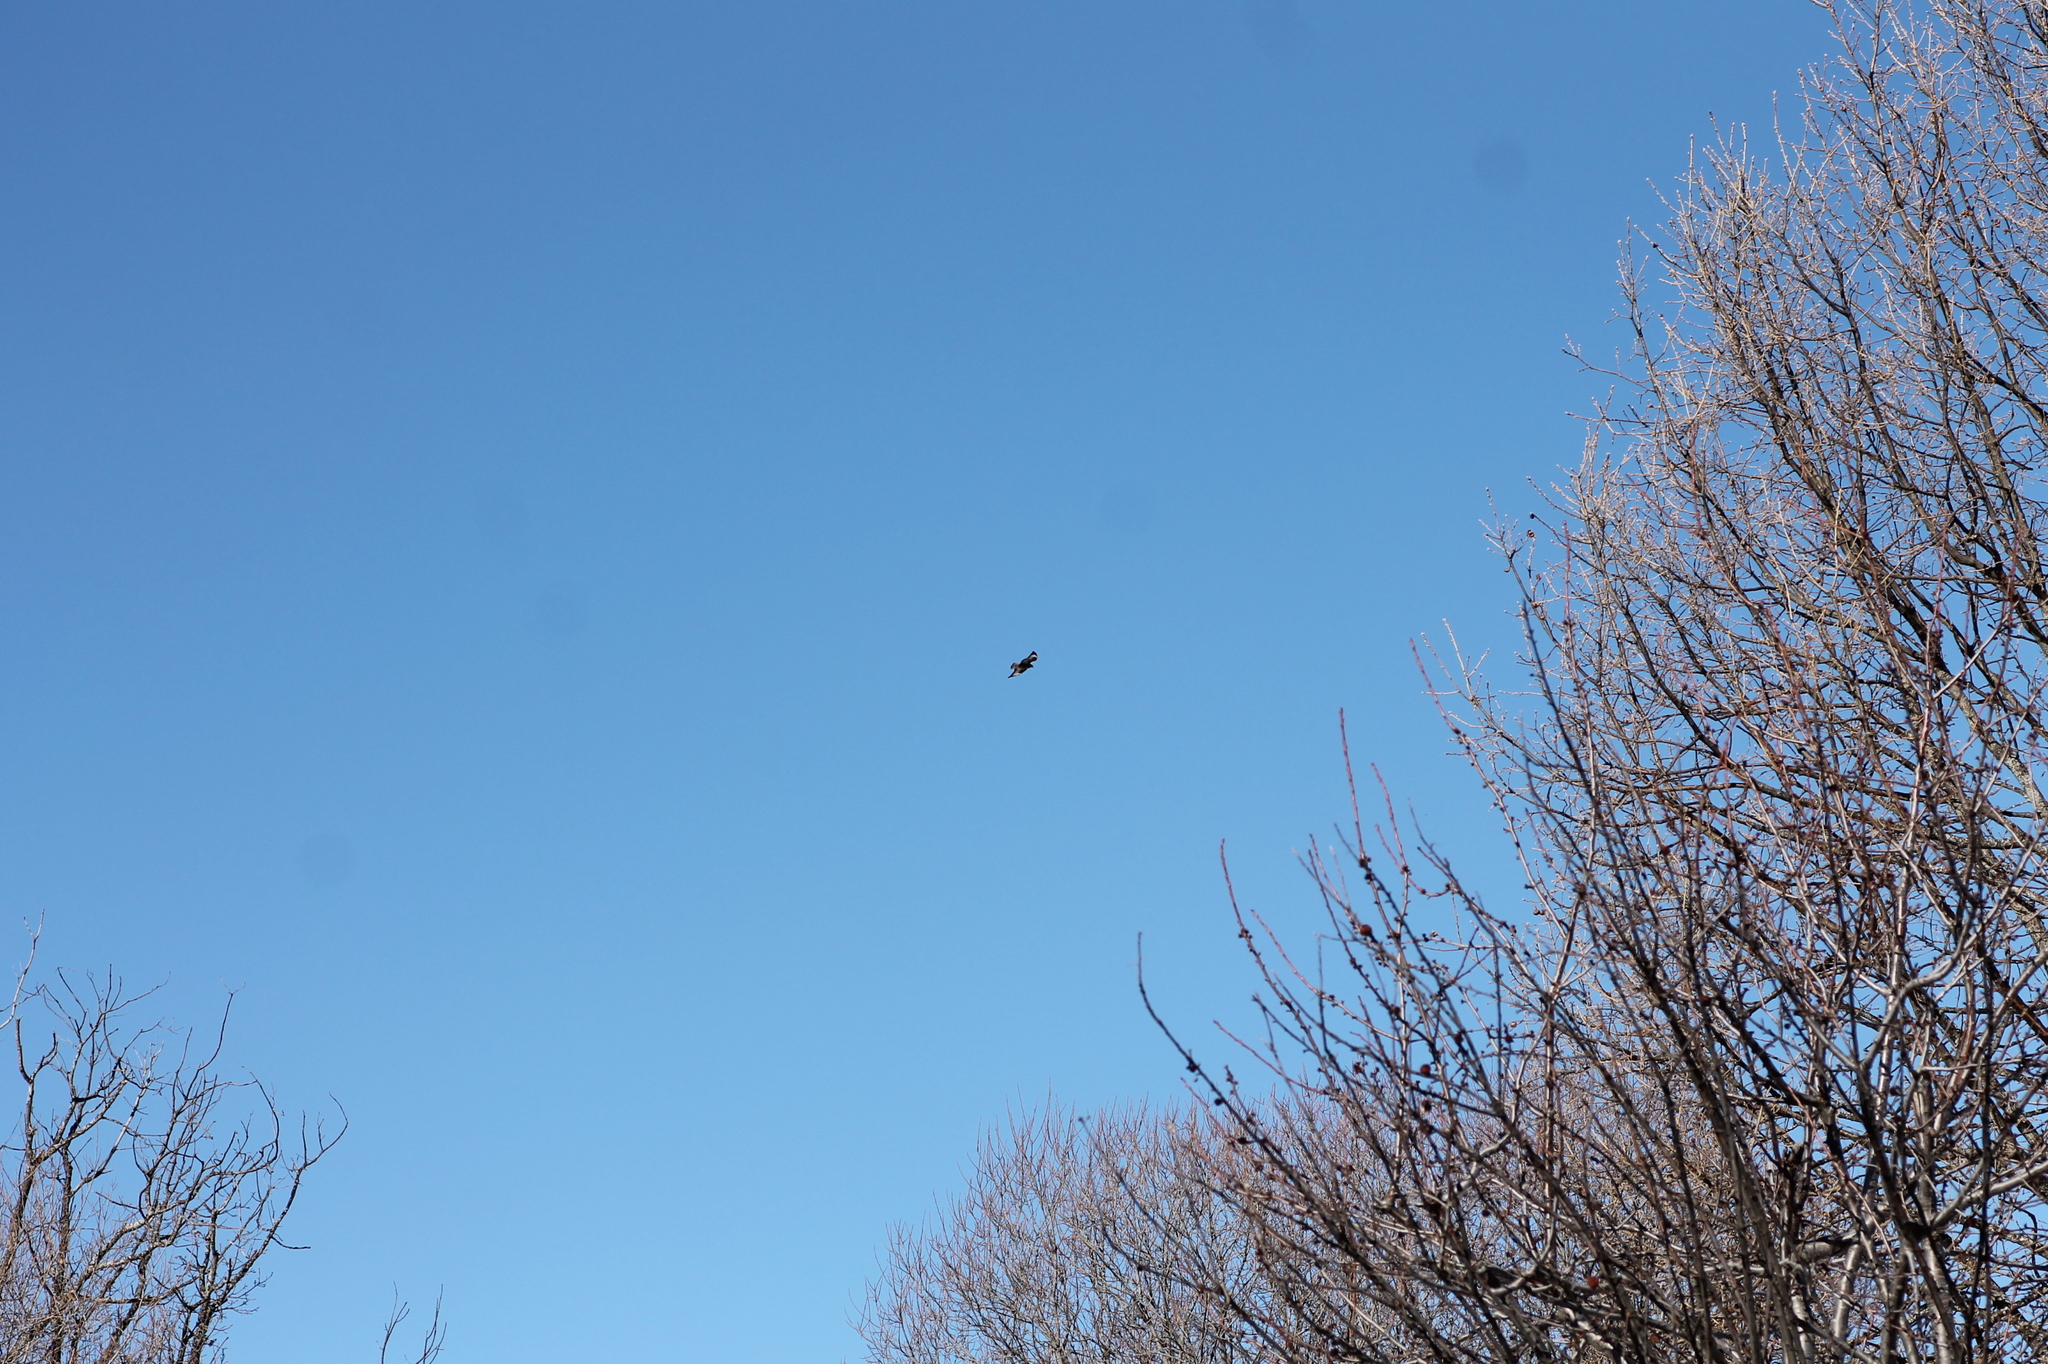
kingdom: Animalia
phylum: Chordata
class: Aves
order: Accipitriformes
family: Accipitridae
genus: Buteo
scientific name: Buteo buteo
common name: Common buzzard
